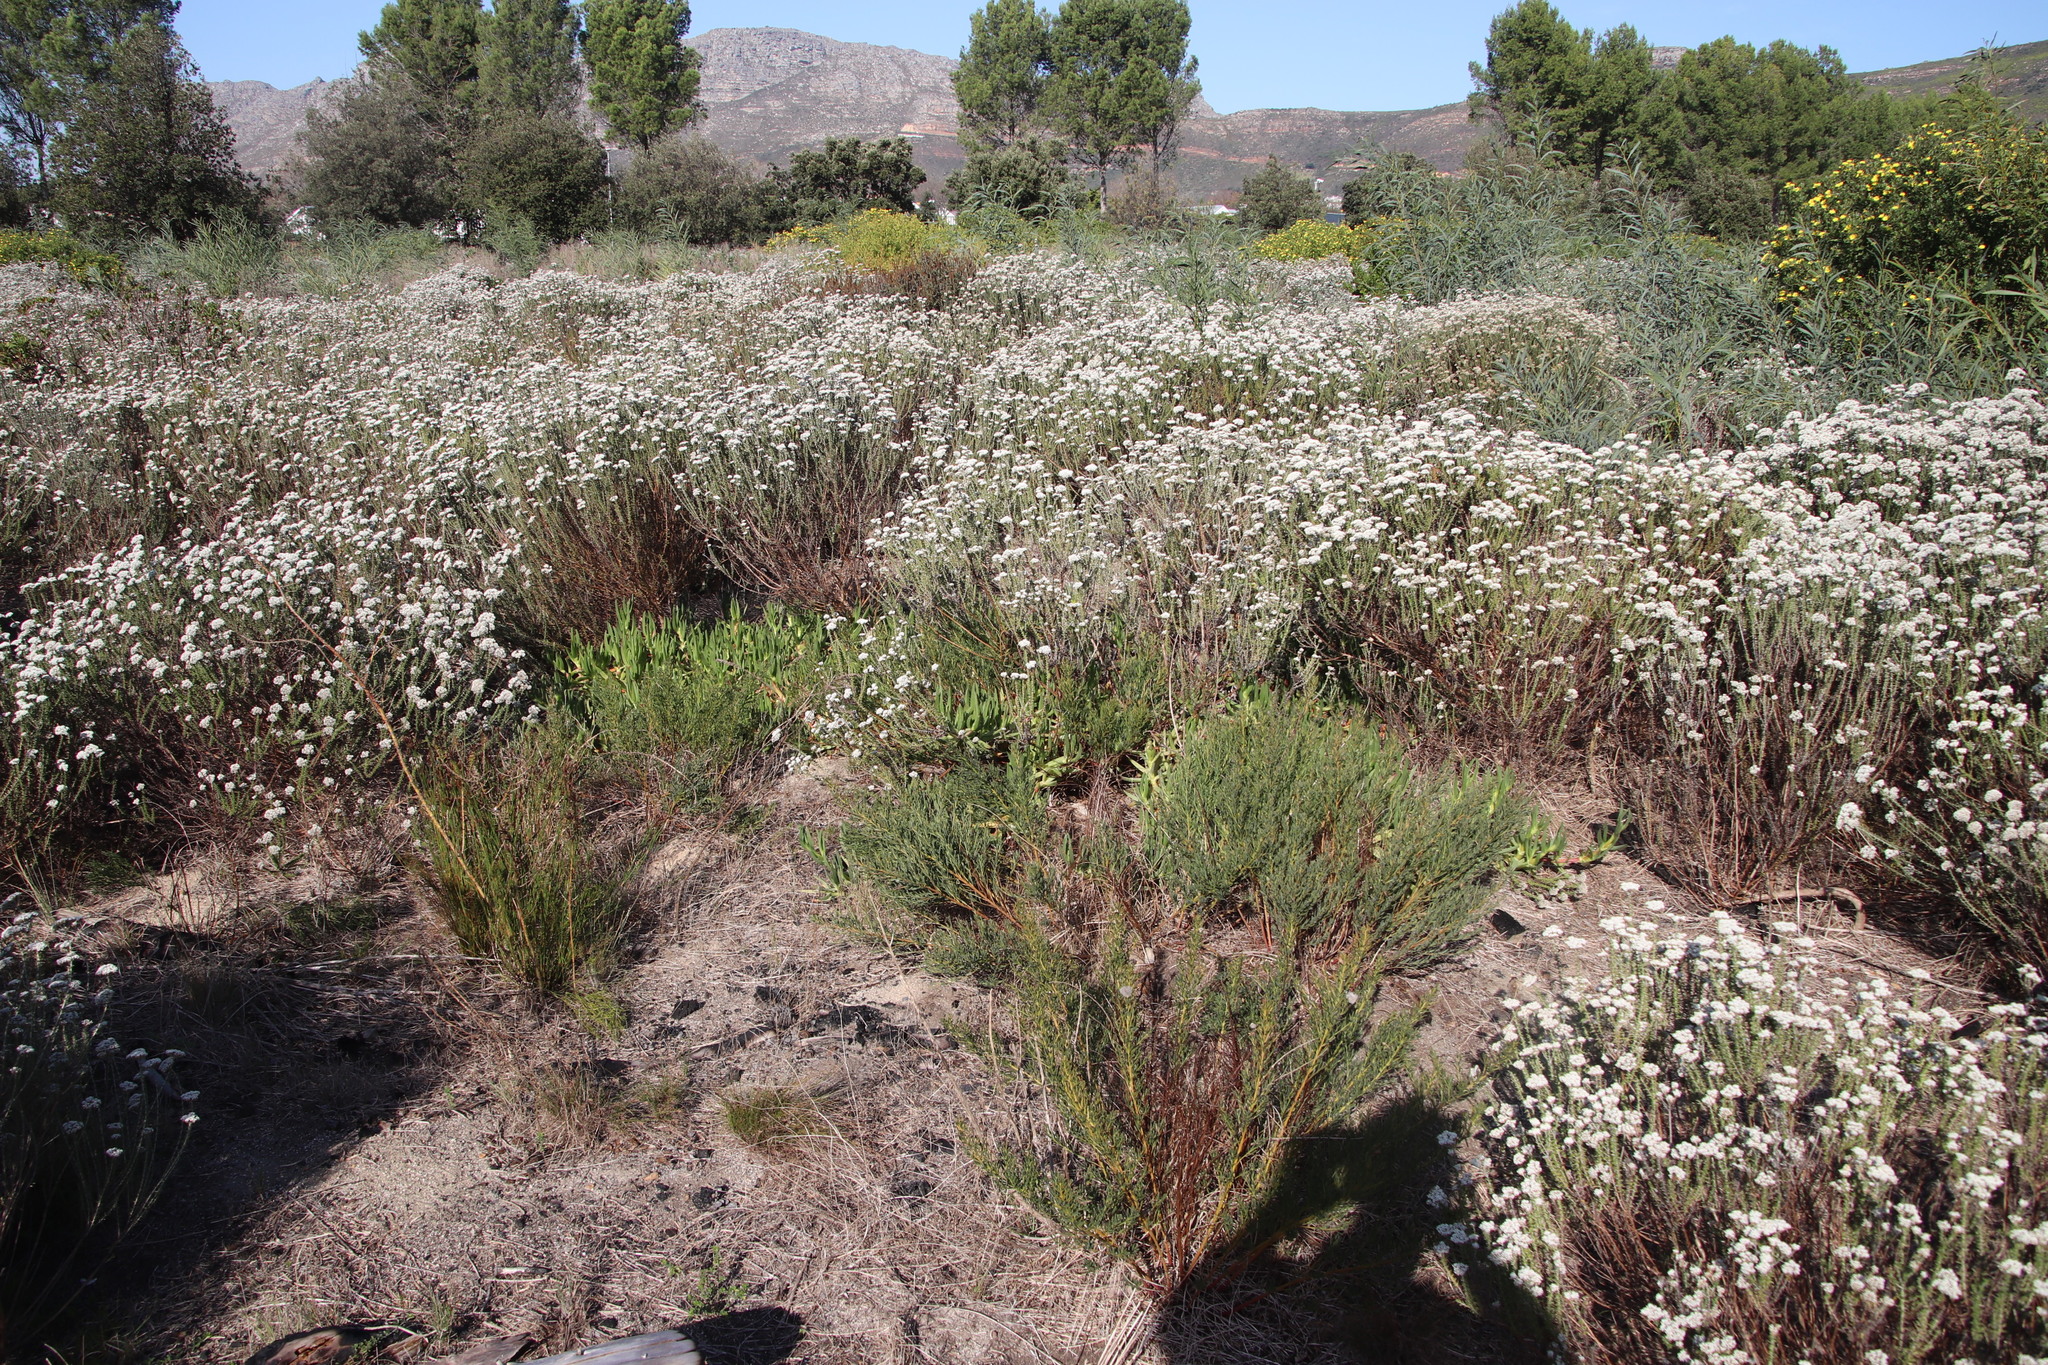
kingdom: Plantae
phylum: Tracheophyta
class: Magnoliopsida
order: Fabales
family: Fabaceae
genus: Rafnia
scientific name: Rafnia capensis
